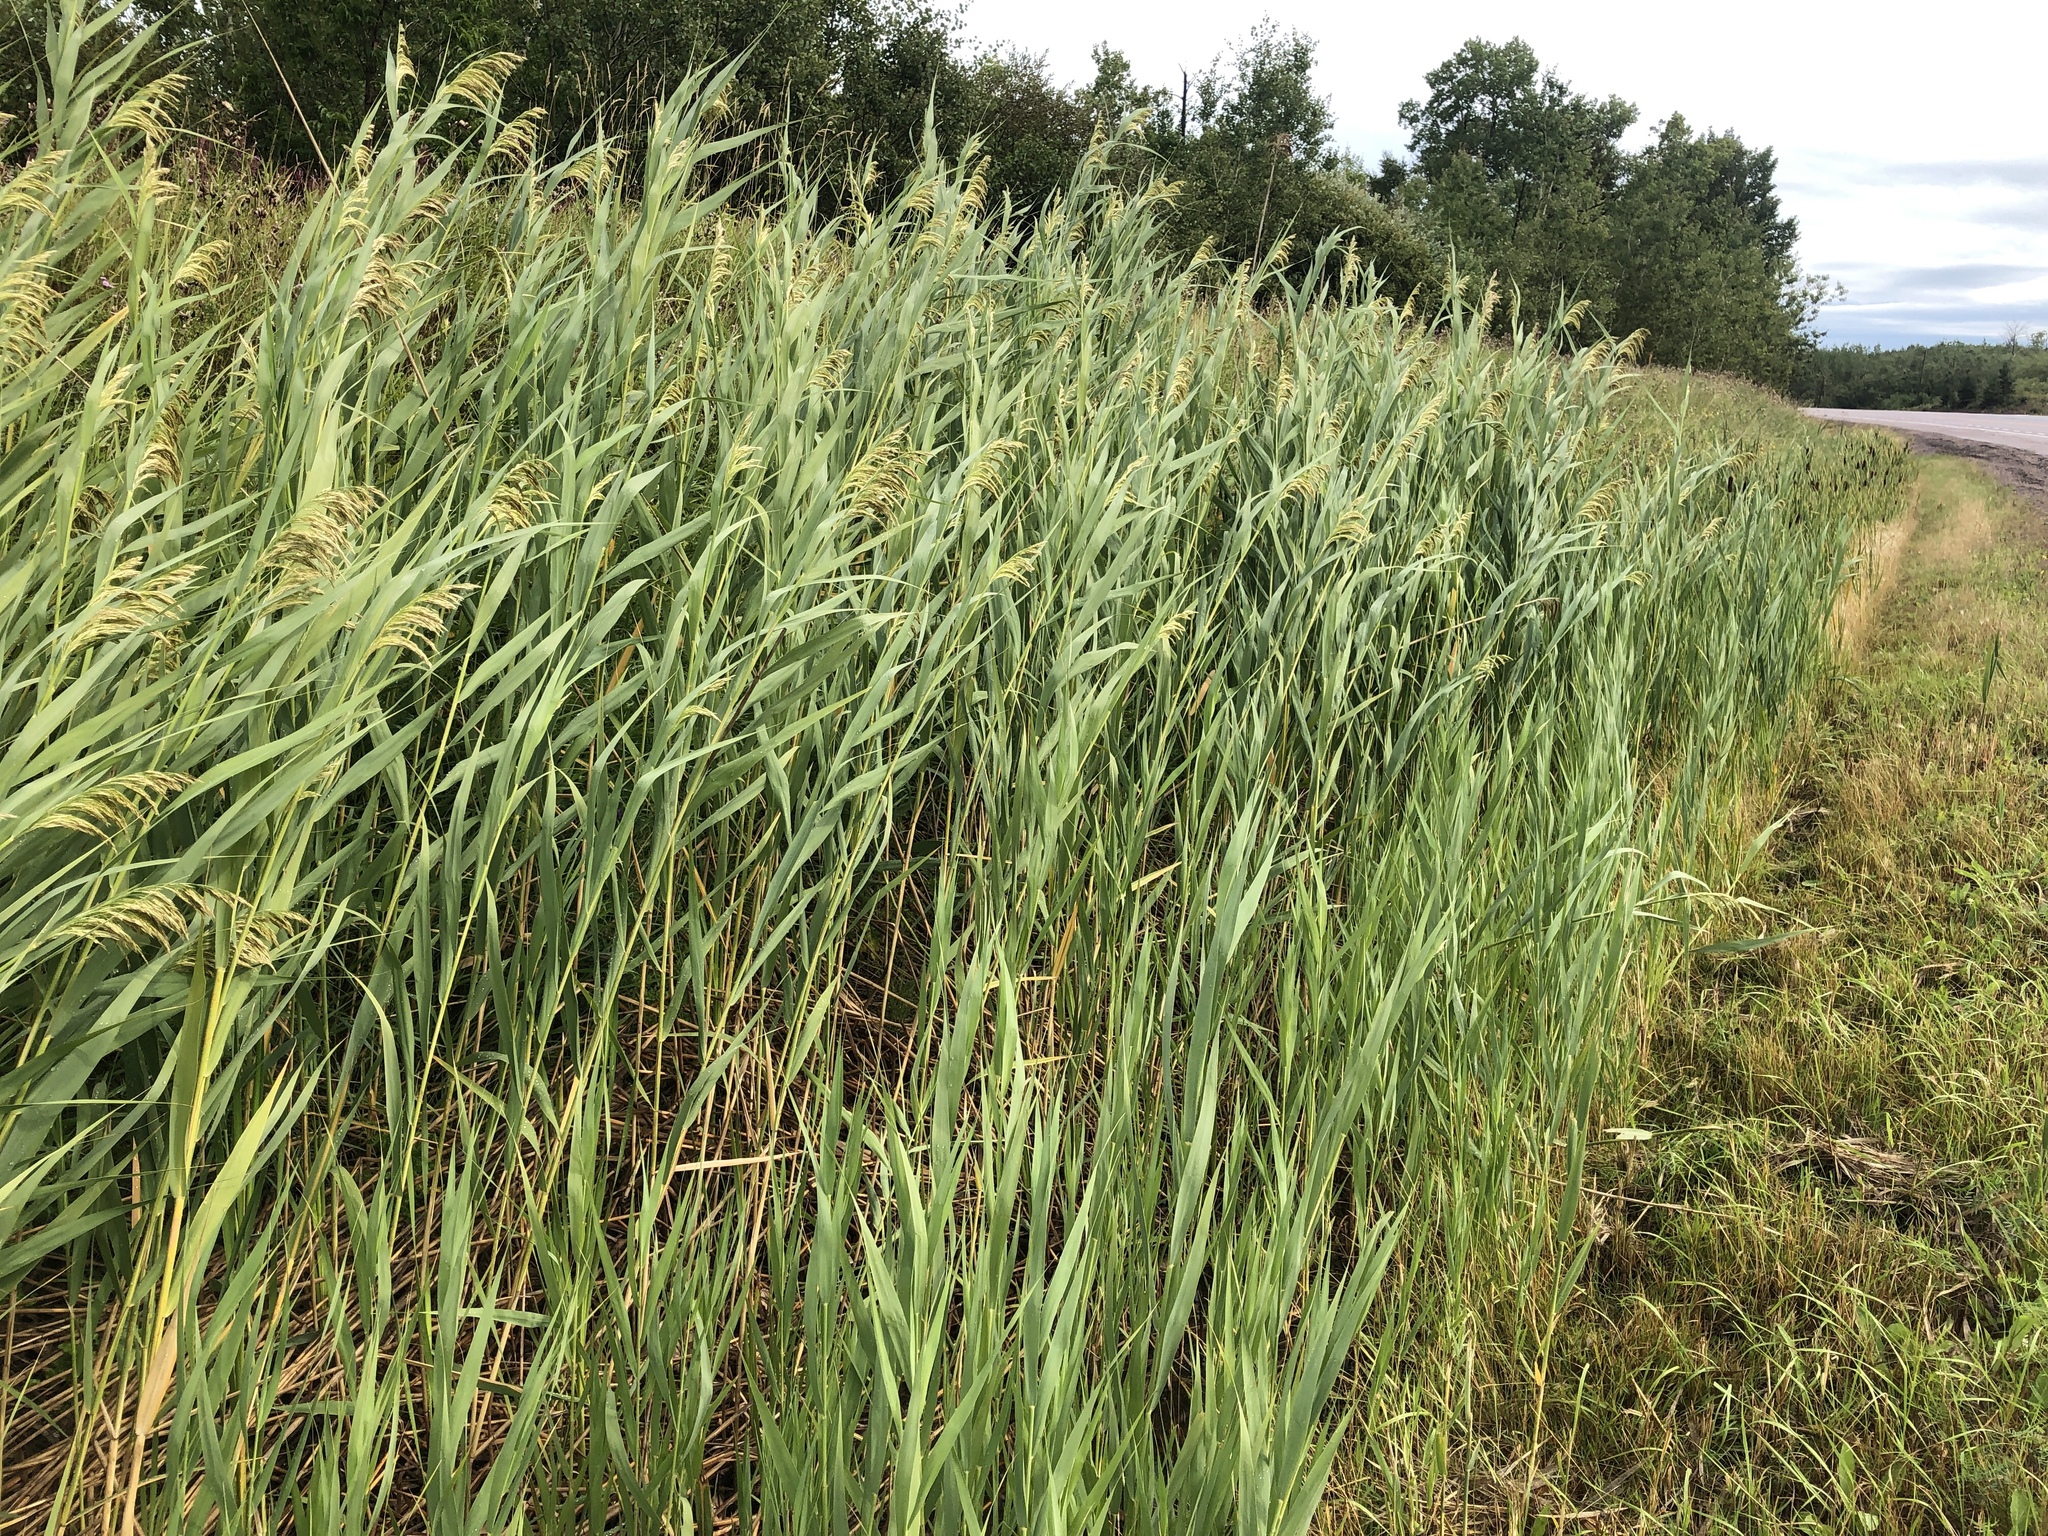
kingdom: Plantae
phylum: Tracheophyta
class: Liliopsida
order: Poales
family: Poaceae
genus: Phragmites
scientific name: Phragmites australis
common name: Common reed
